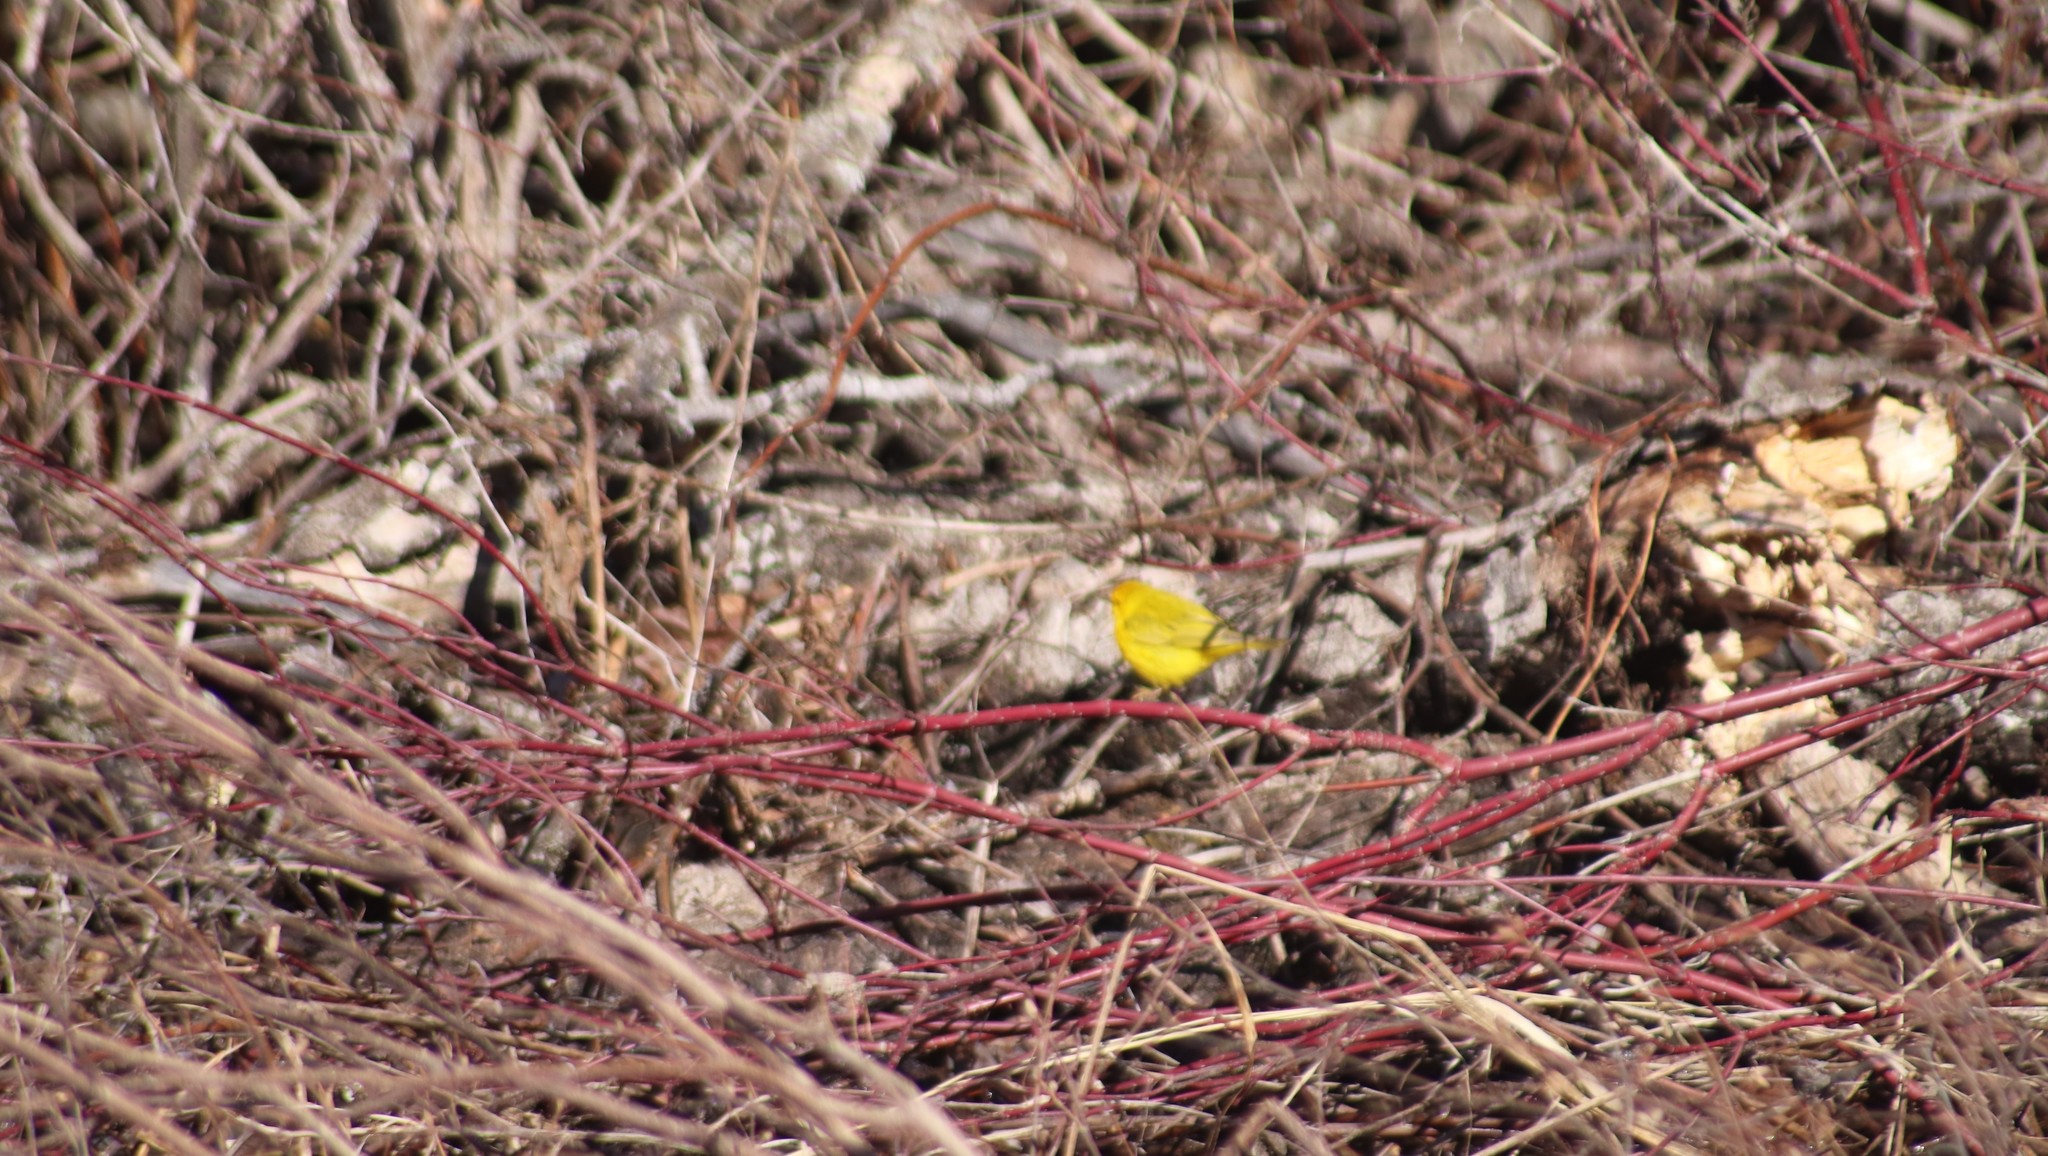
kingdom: Animalia
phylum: Chordata
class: Aves
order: Passeriformes
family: Parulidae
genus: Setophaga
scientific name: Setophaga petechia
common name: Yellow warbler
